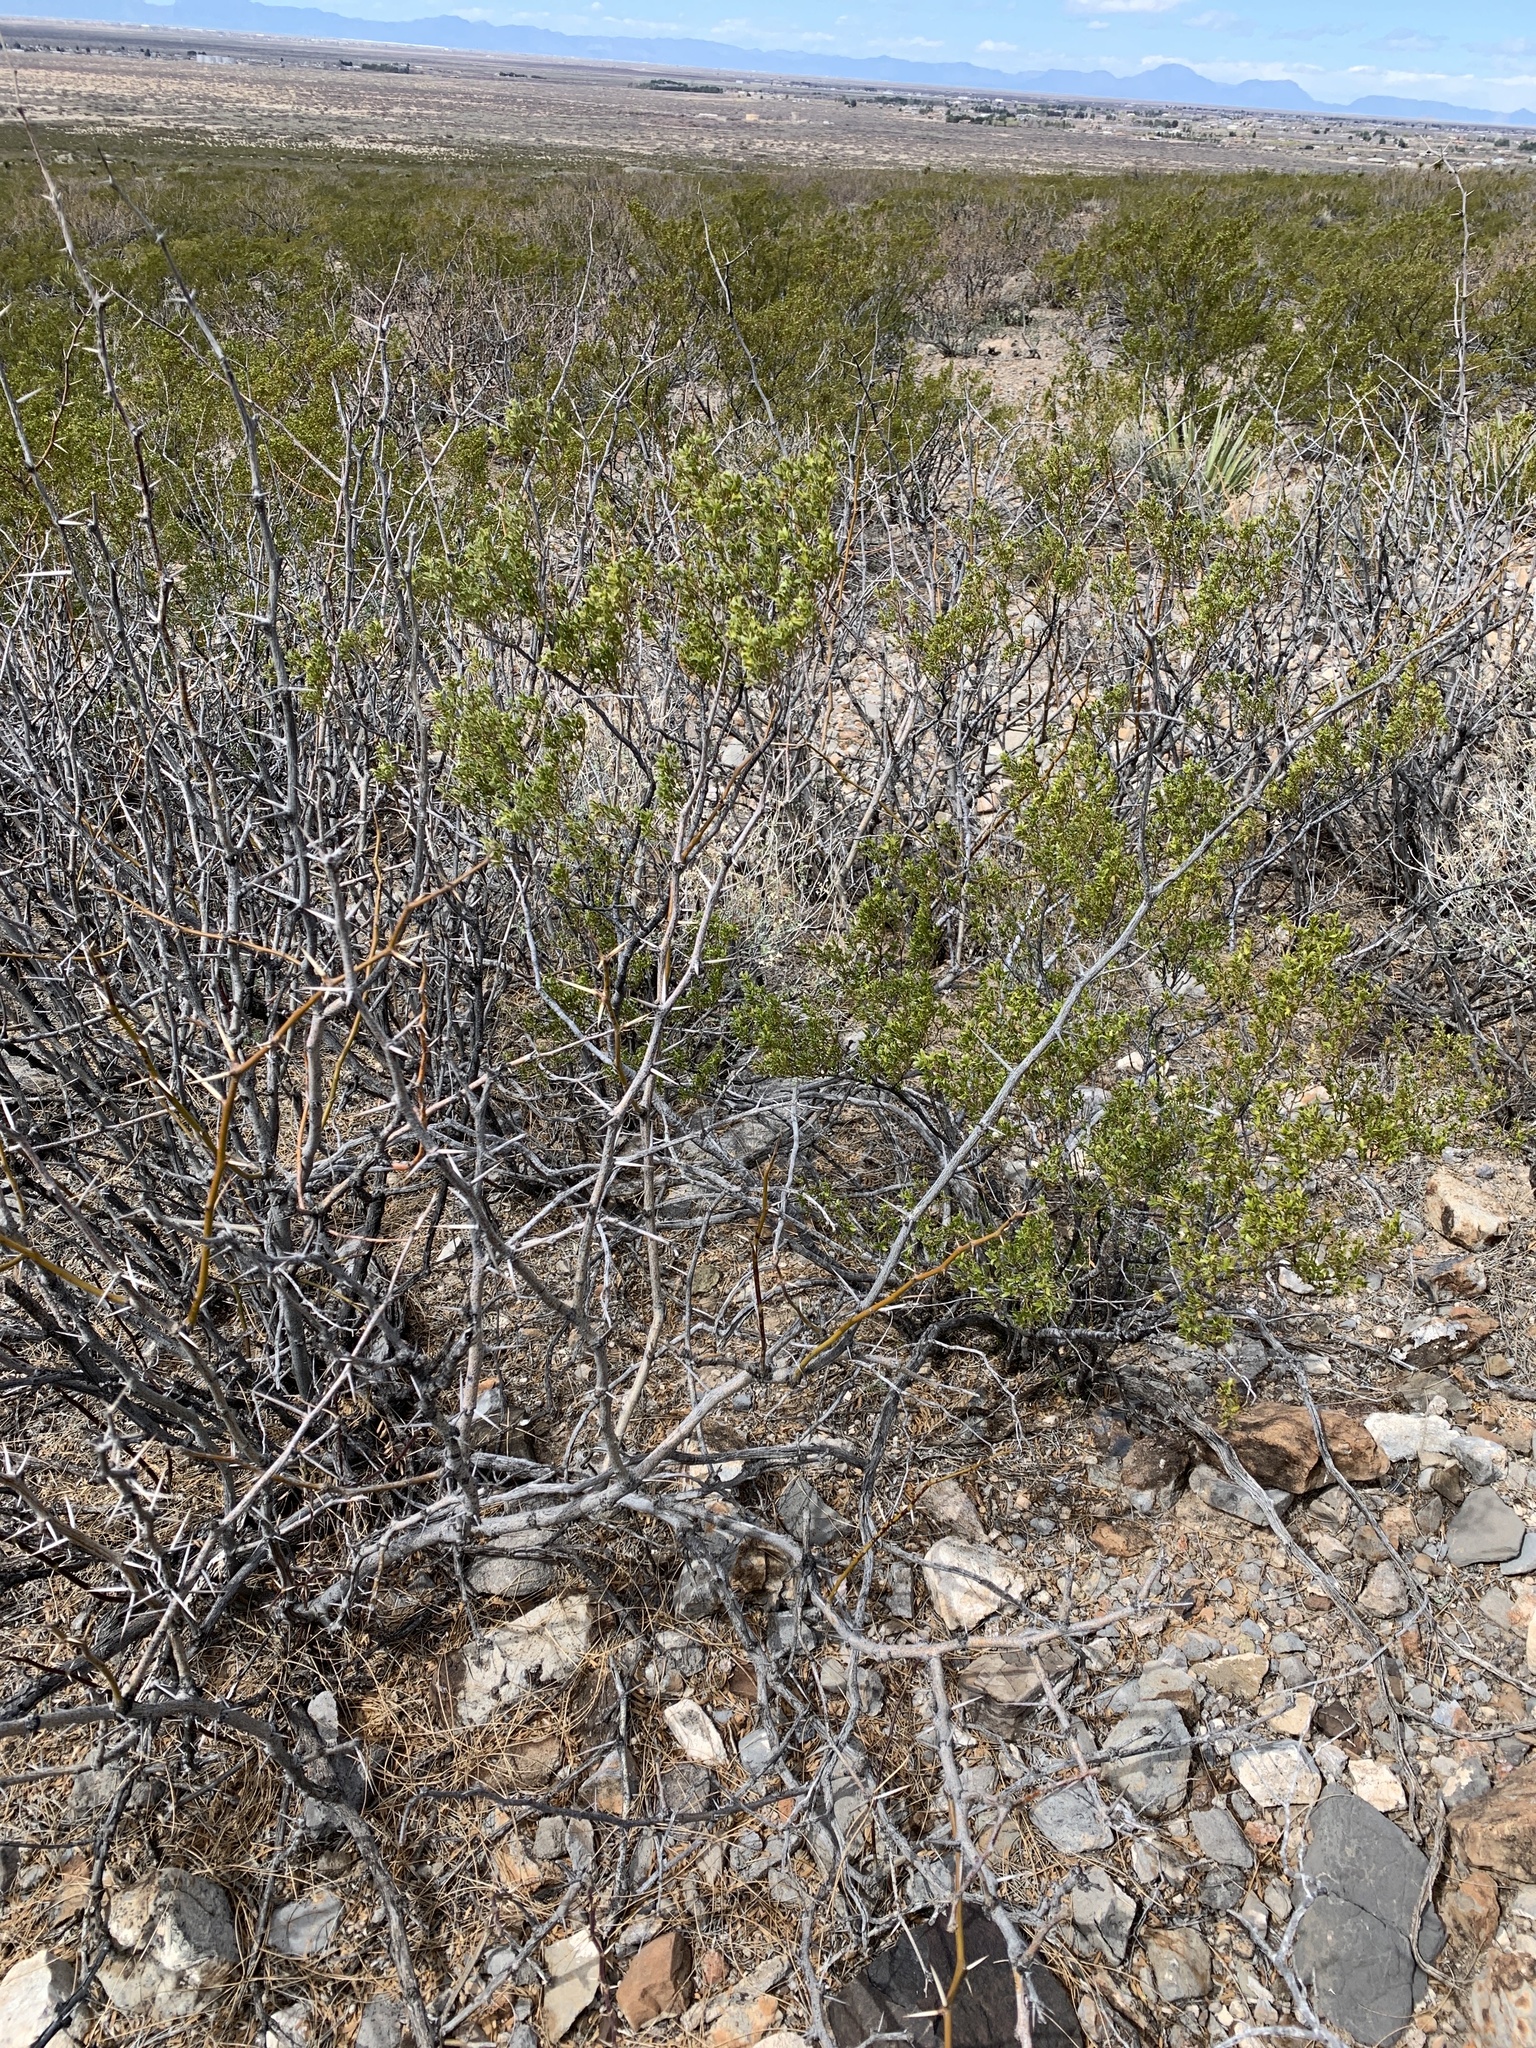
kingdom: Plantae
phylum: Tracheophyta
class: Magnoliopsida
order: Fabales
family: Fabaceae
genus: Prosopis
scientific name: Prosopis glandulosa
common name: Honey mesquite
